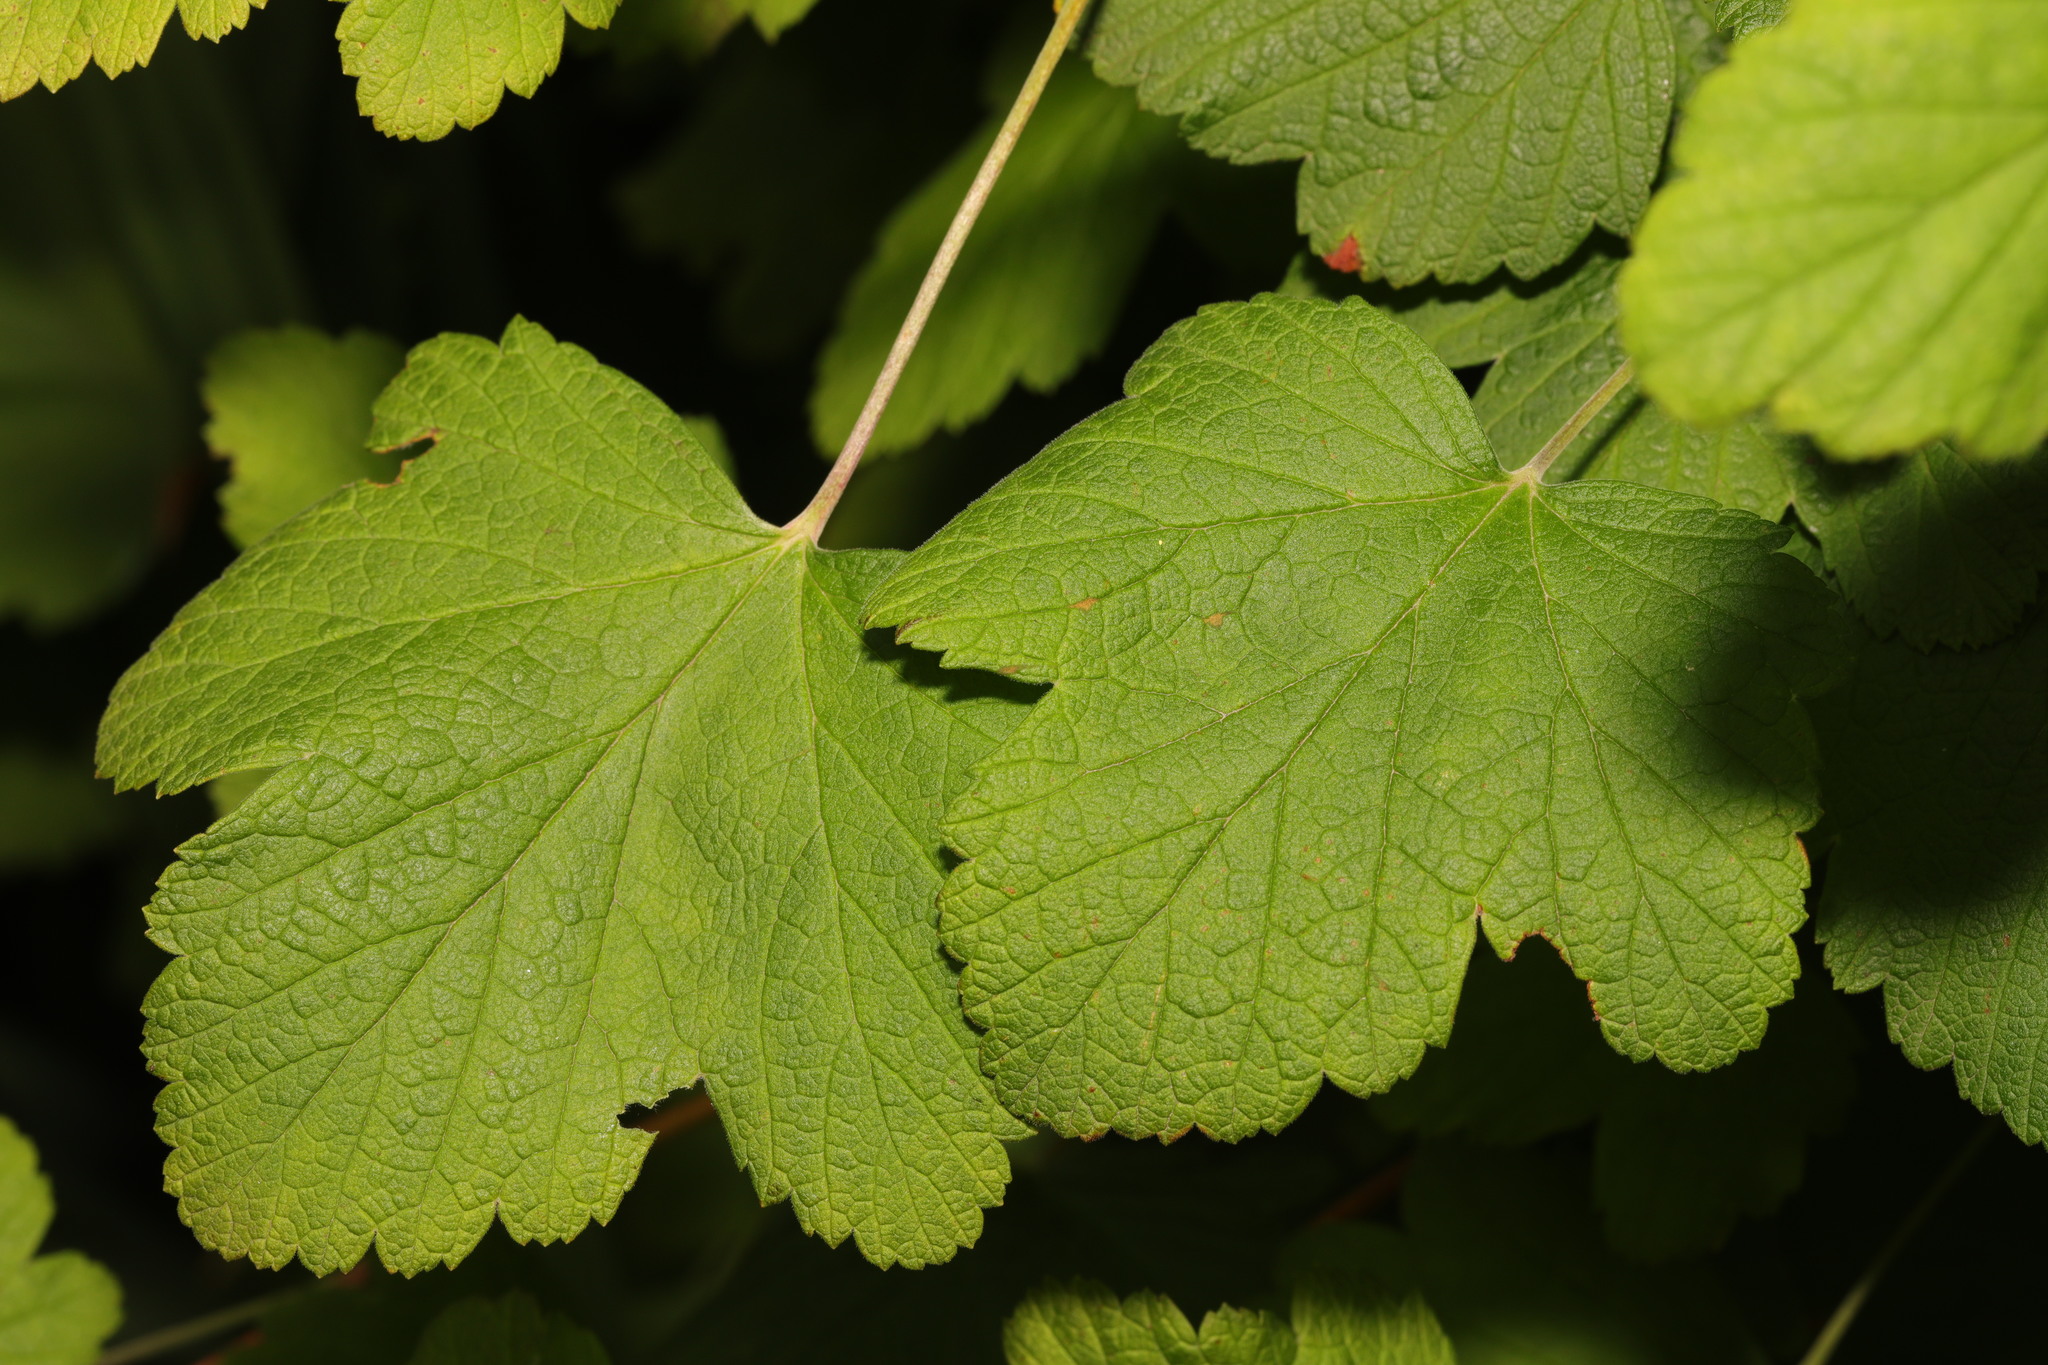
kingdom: Plantae
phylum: Tracheophyta
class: Magnoliopsida
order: Saxifragales
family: Grossulariaceae
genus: Ribes
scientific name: Ribes sanguineum
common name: Flowering currant
